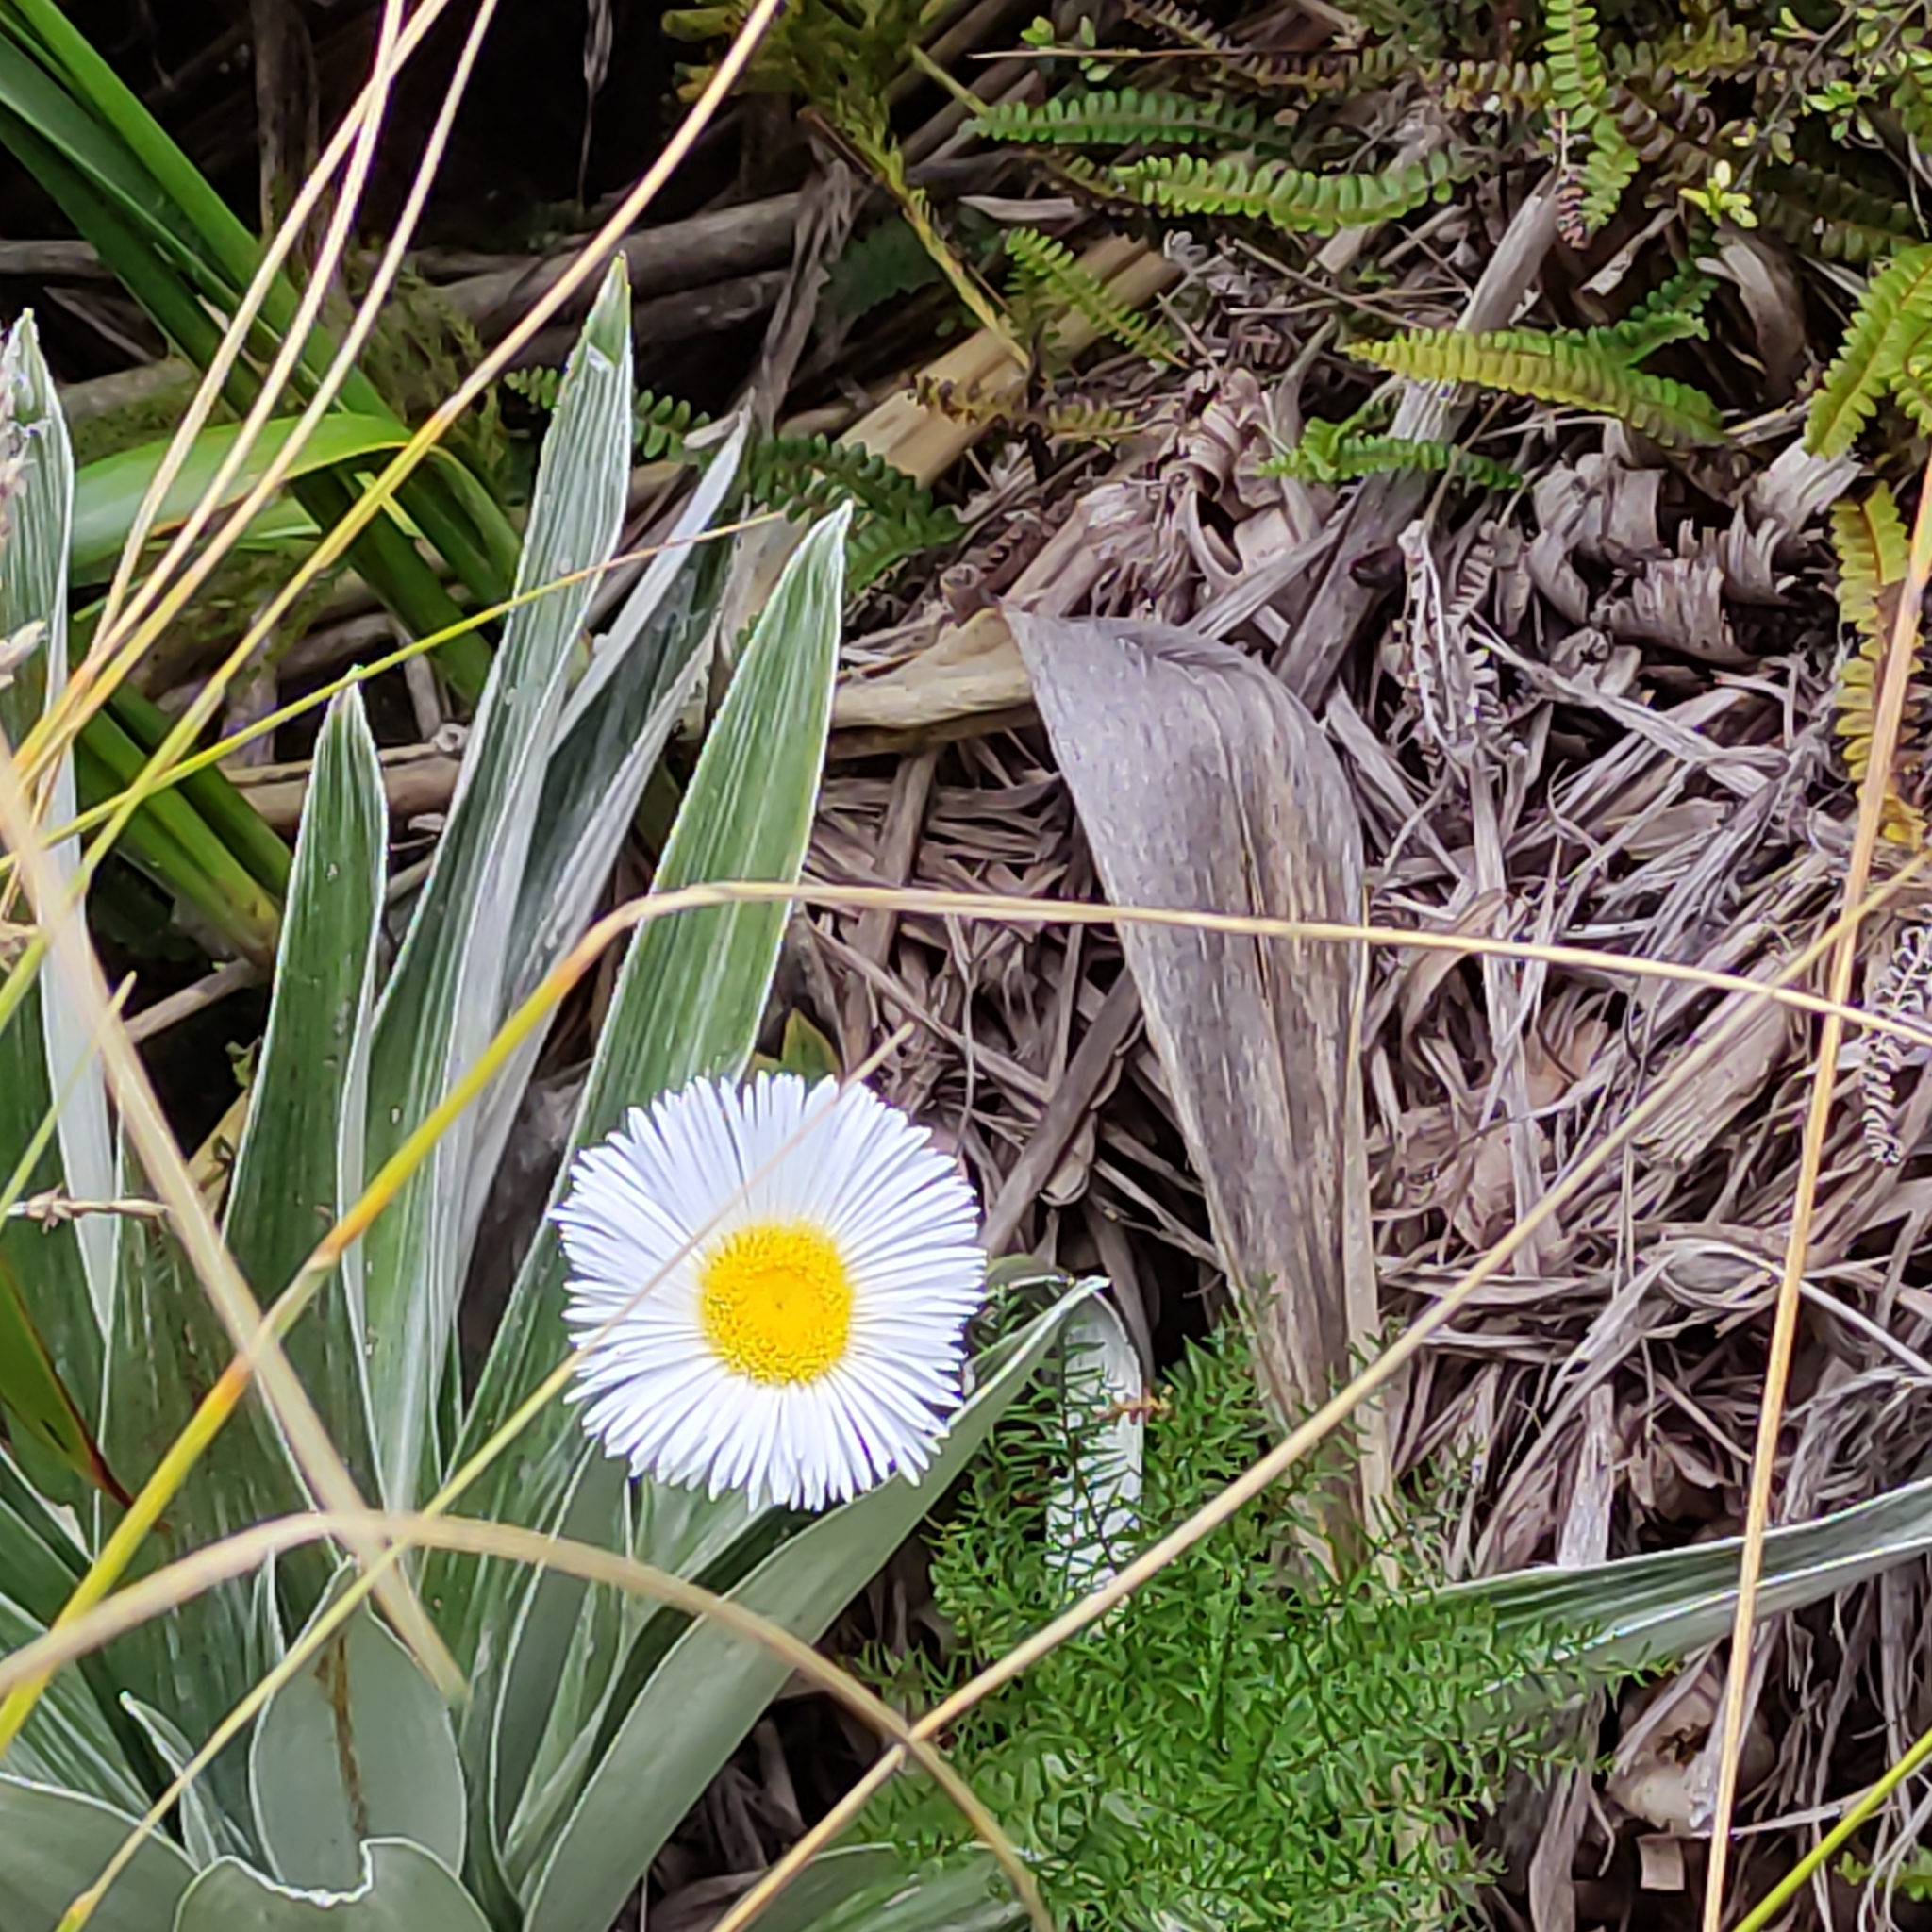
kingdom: Plantae
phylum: Tracheophyta
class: Magnoliopsida
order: Asterales
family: Asteraceae
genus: Celmisia
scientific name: Celmisia semicordata
